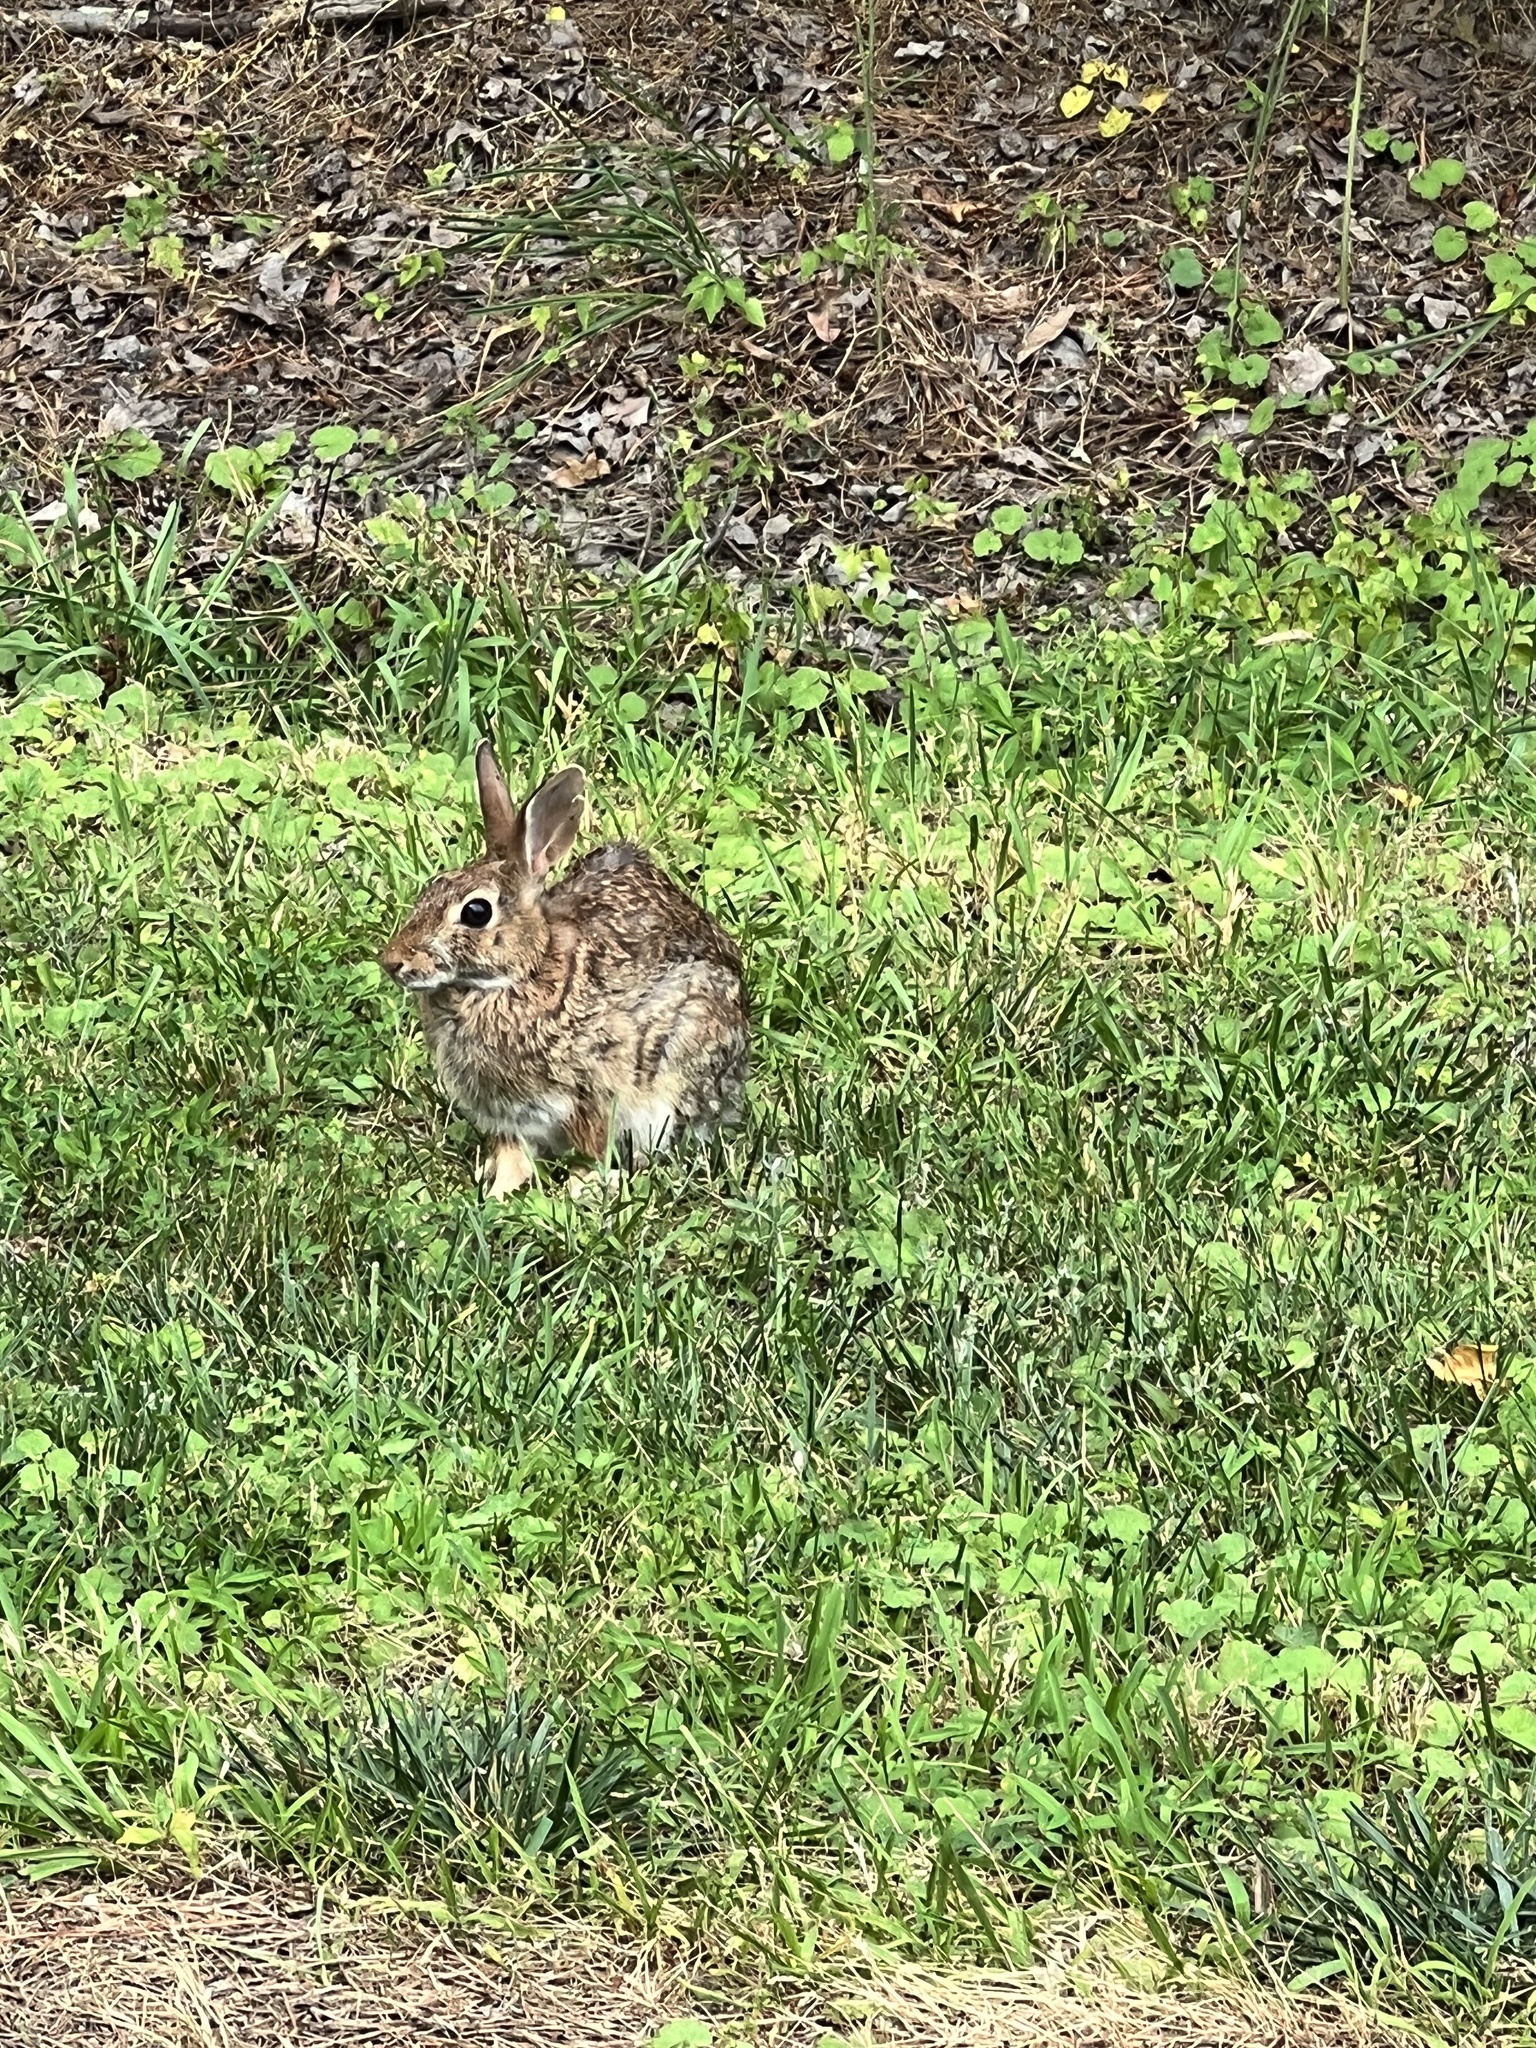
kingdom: Animalia
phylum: Chordata
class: Mammalia
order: Lagomorpha
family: Leporidae
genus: Sylvilagus
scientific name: Sylvilagus floridanus
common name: Eastern cottontail
